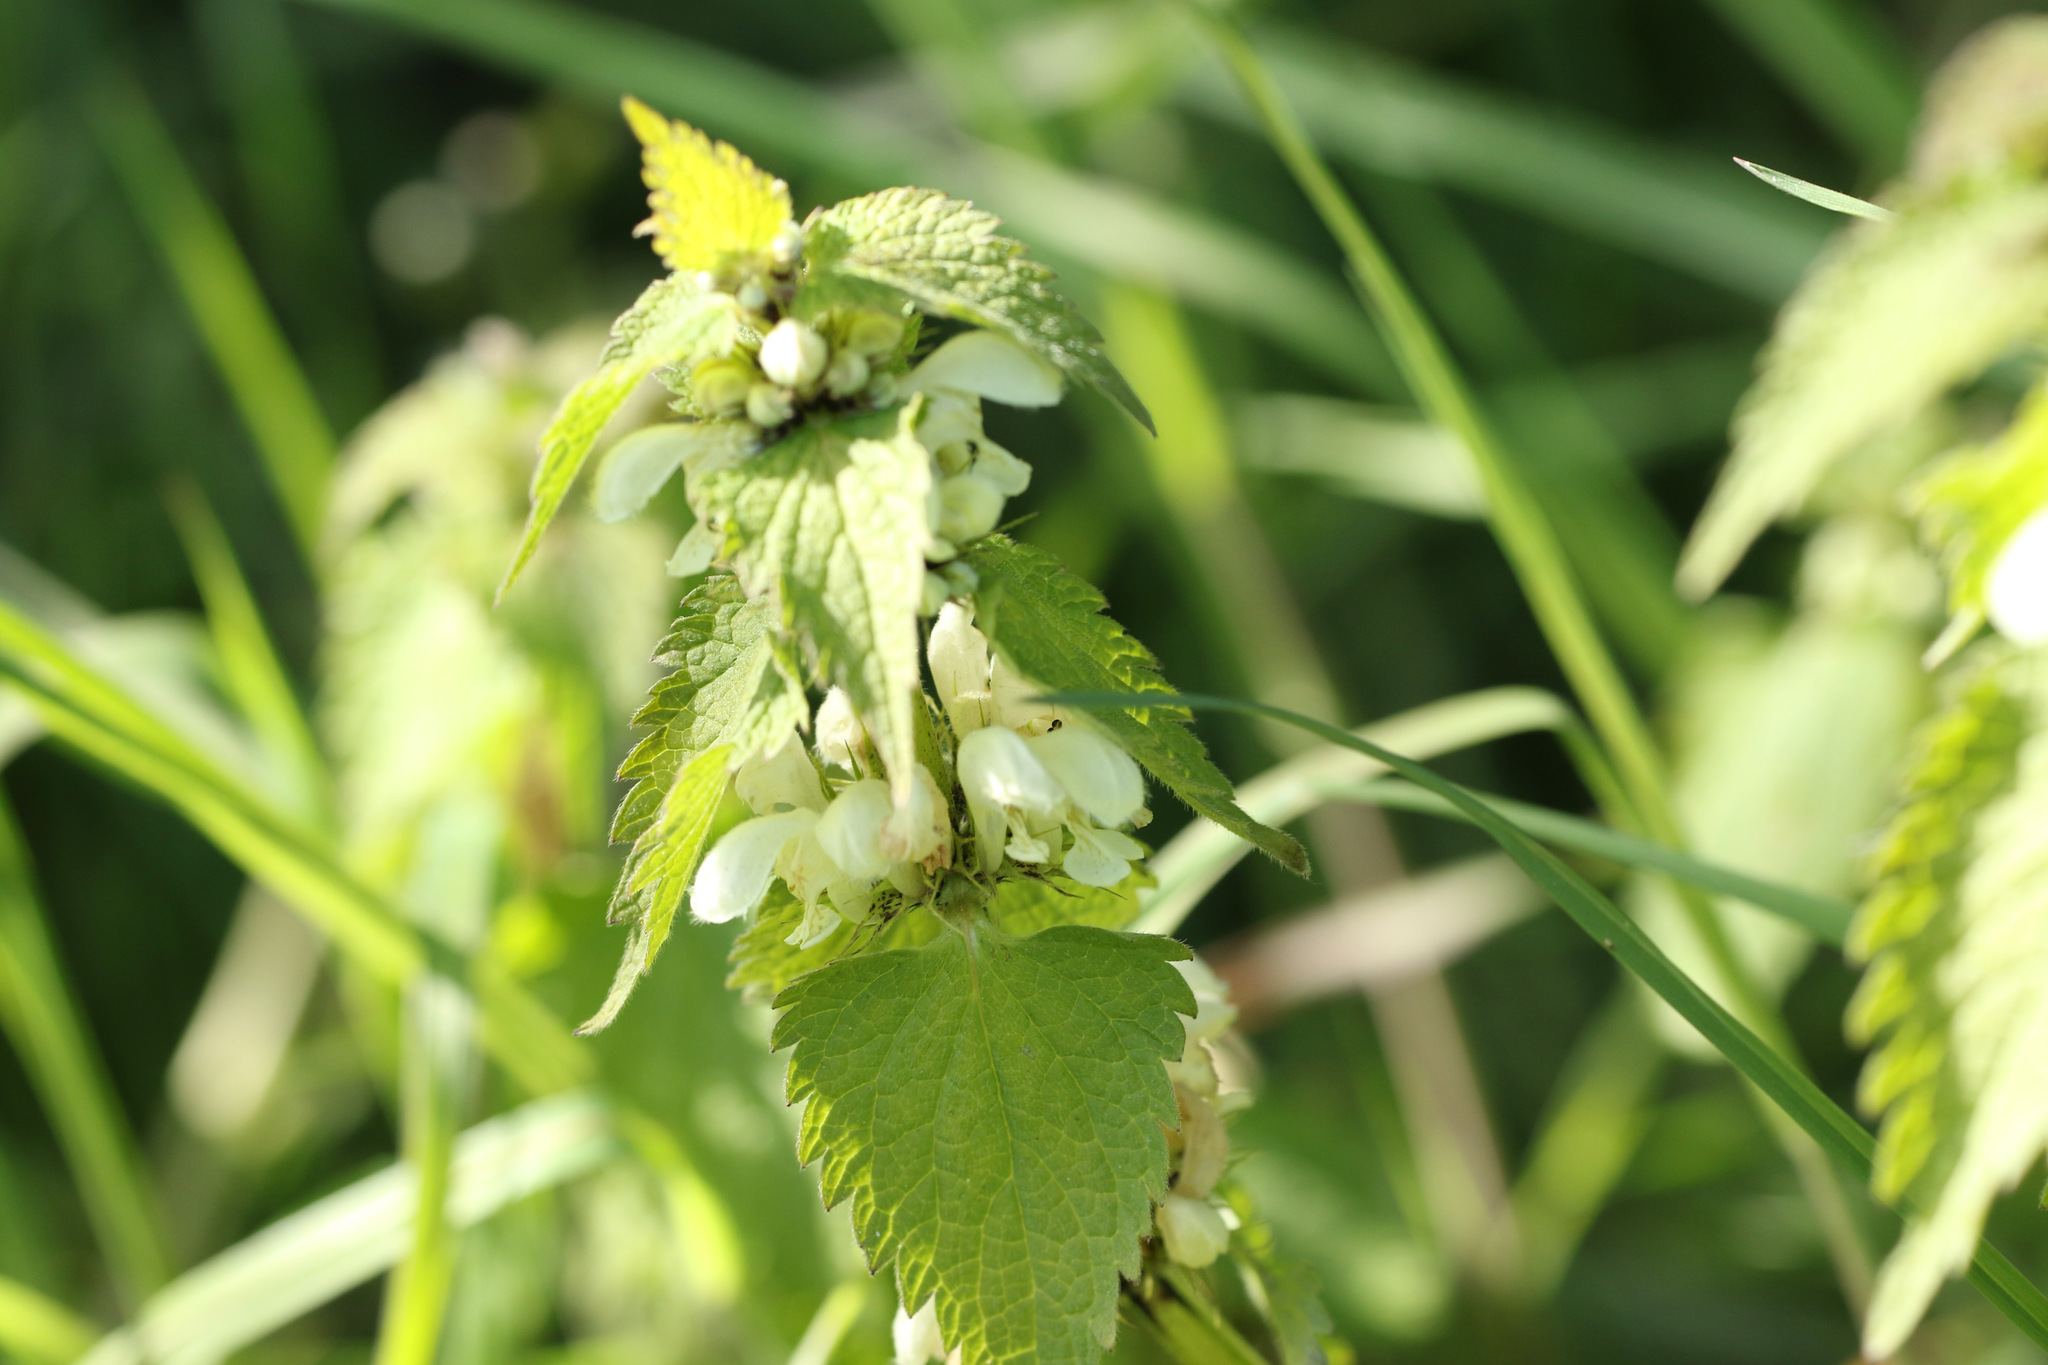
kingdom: Plantae
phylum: Tracheophyta
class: Magnoliopsida
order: Lamiales
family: Lamiaceae
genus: Lamium
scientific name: Lamium album
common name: White dead-nettle
